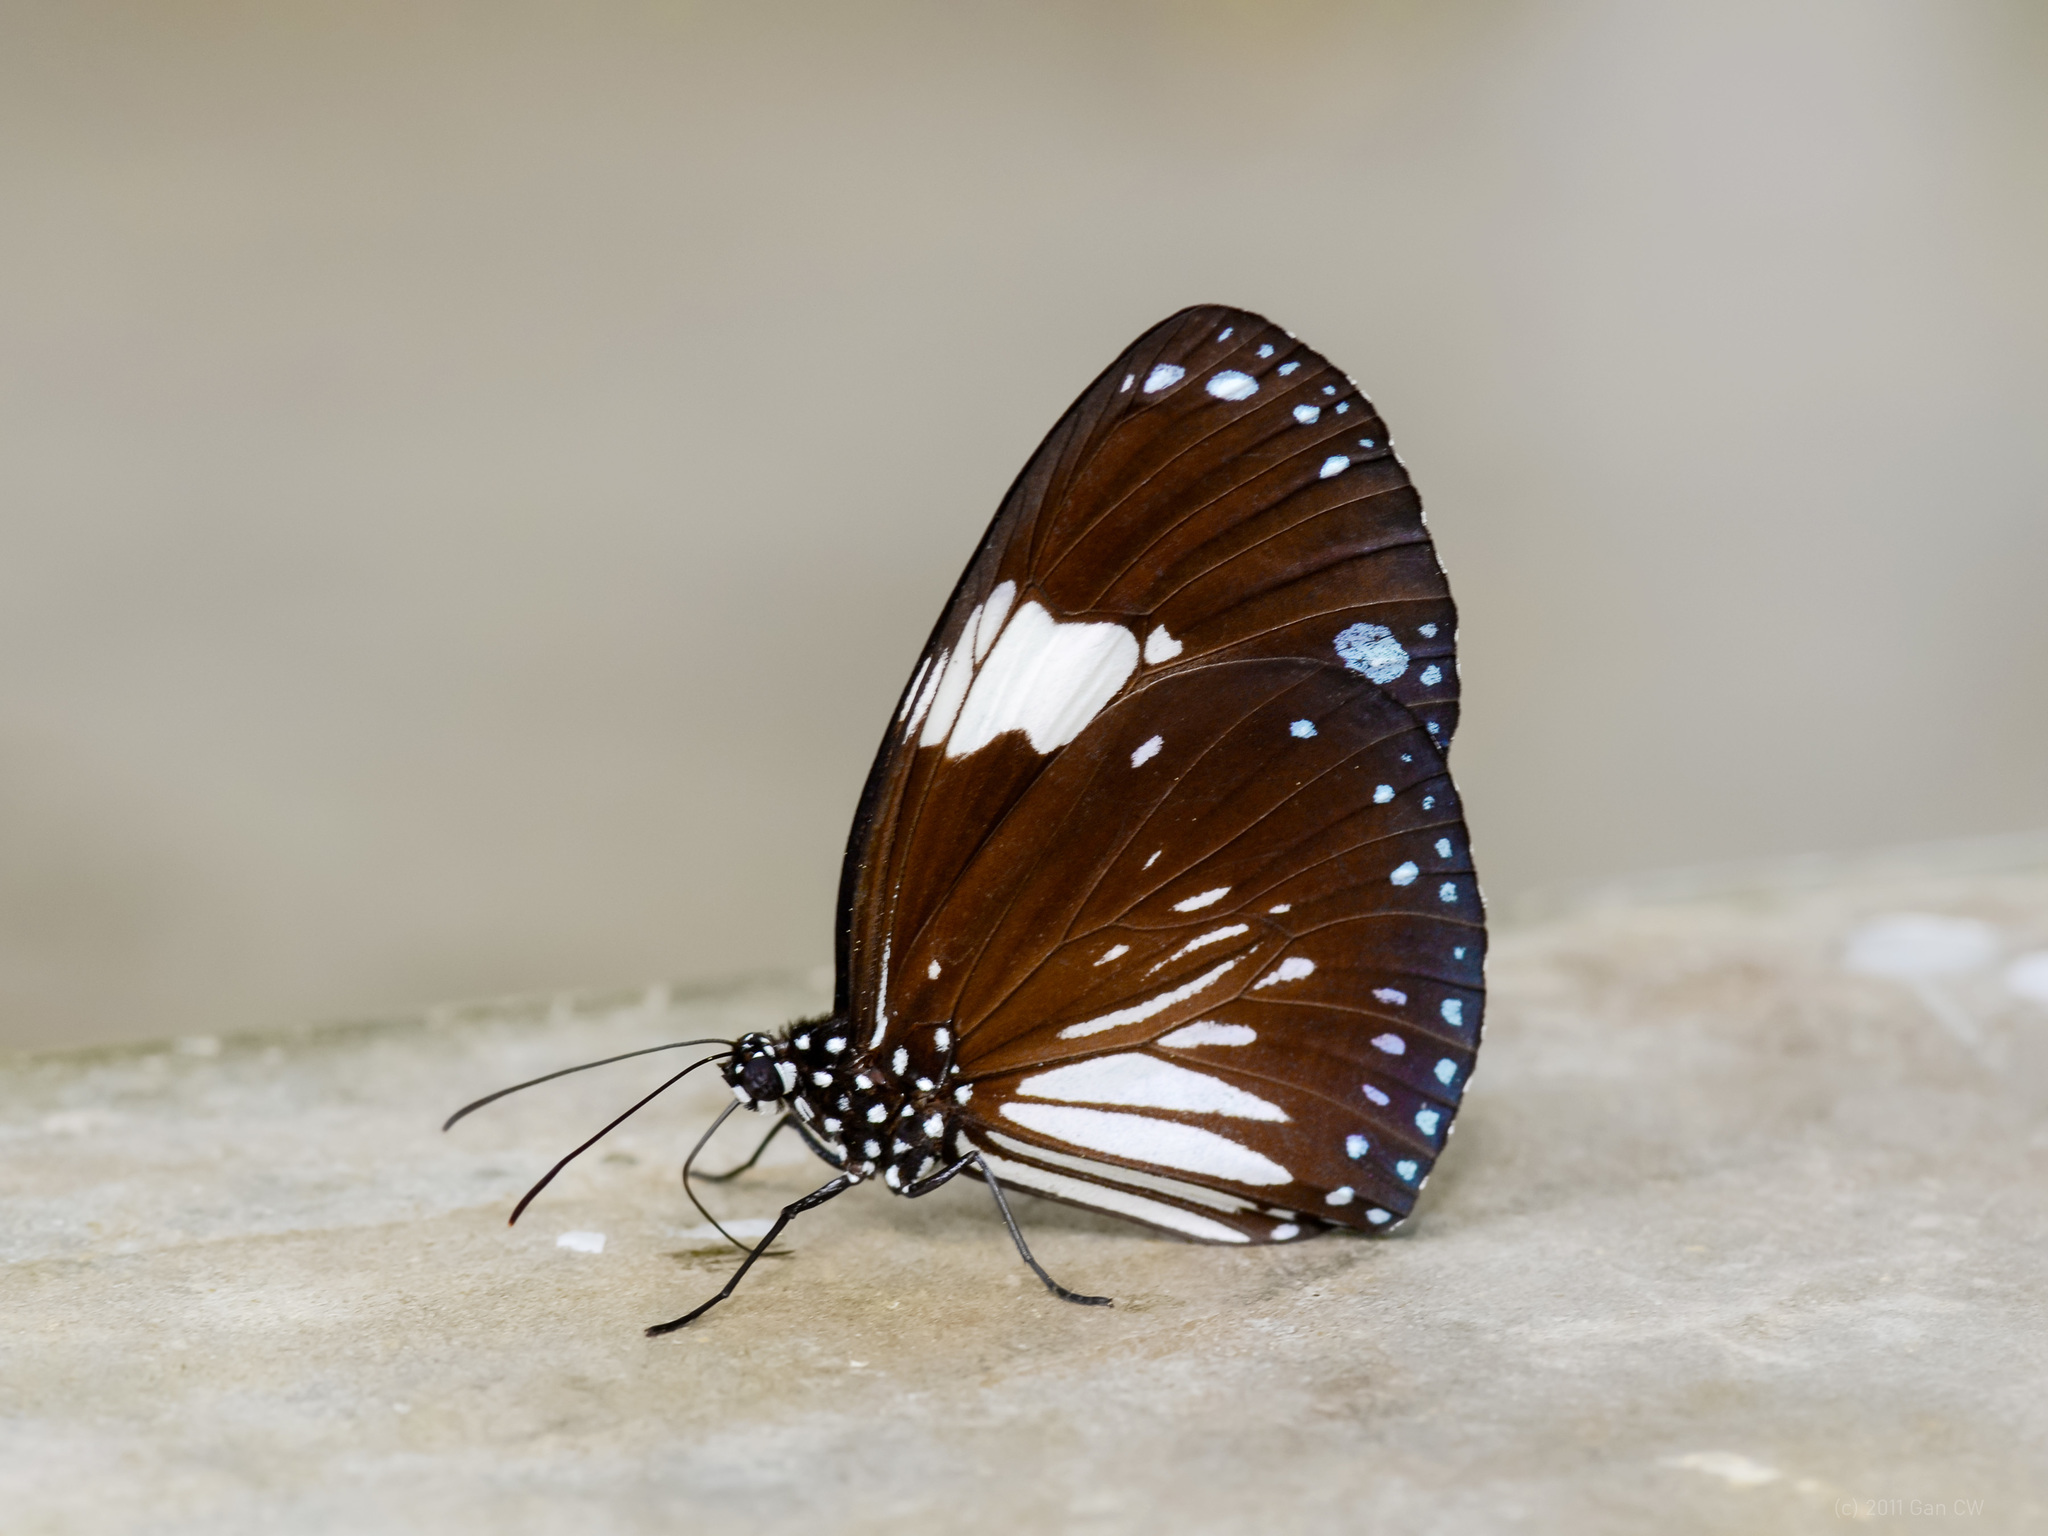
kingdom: Animalia
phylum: Arthropoda
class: Insecta
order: Lepidoptera
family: Nymphalidae
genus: Euploea
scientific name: Euploea radamanthus
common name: Magpie crow butterfly
